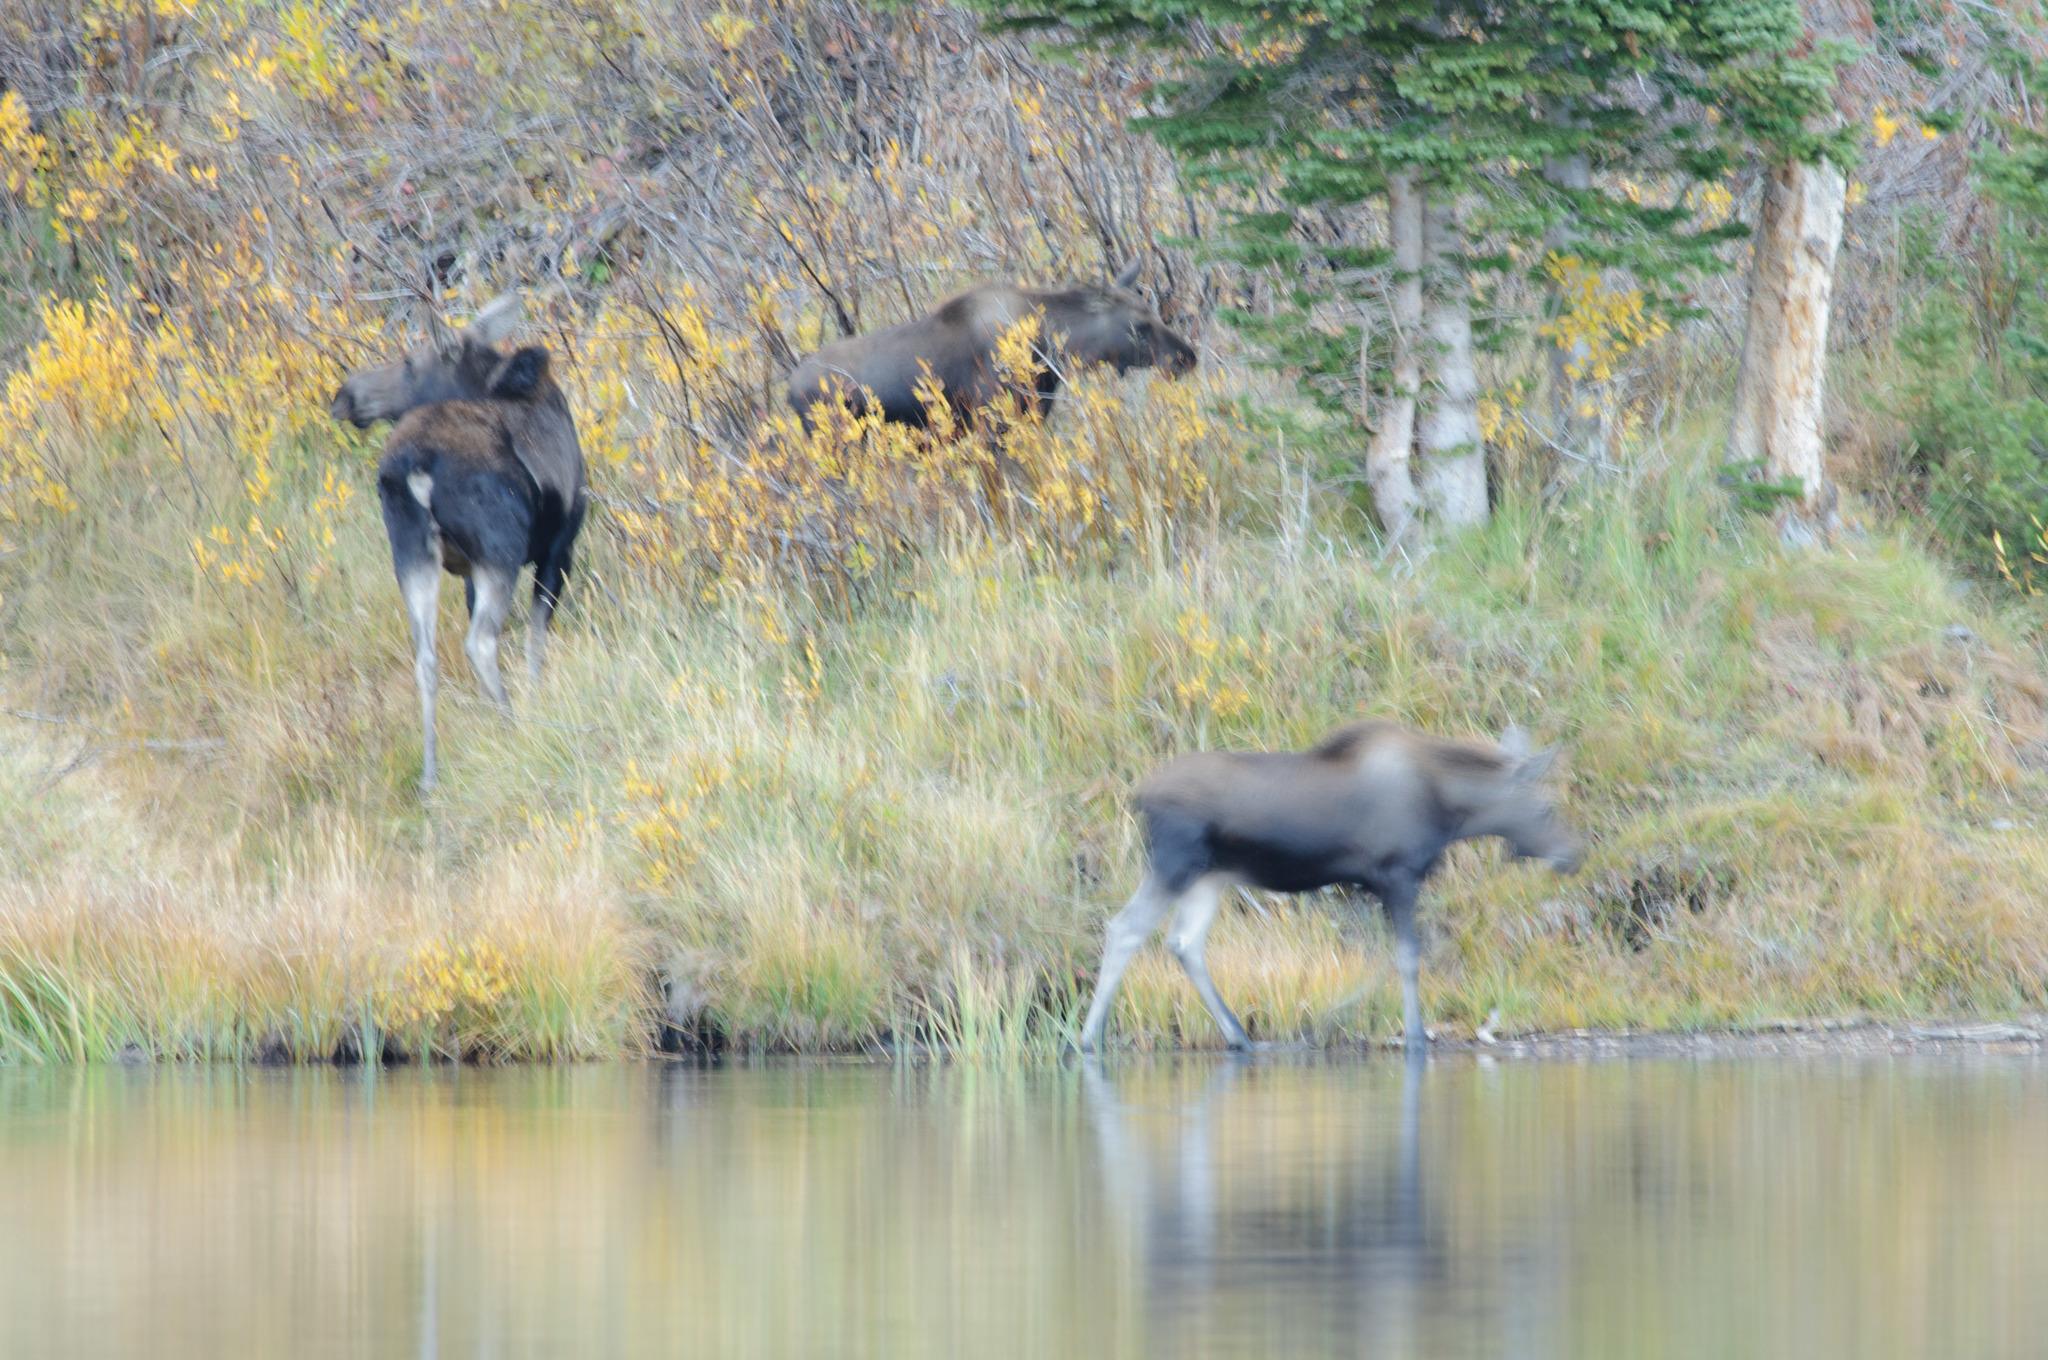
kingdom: Animalia
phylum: Chordata
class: Mammalia
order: Artiodactyla
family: Cervidae
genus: Alces
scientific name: Alces alces
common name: Moose
